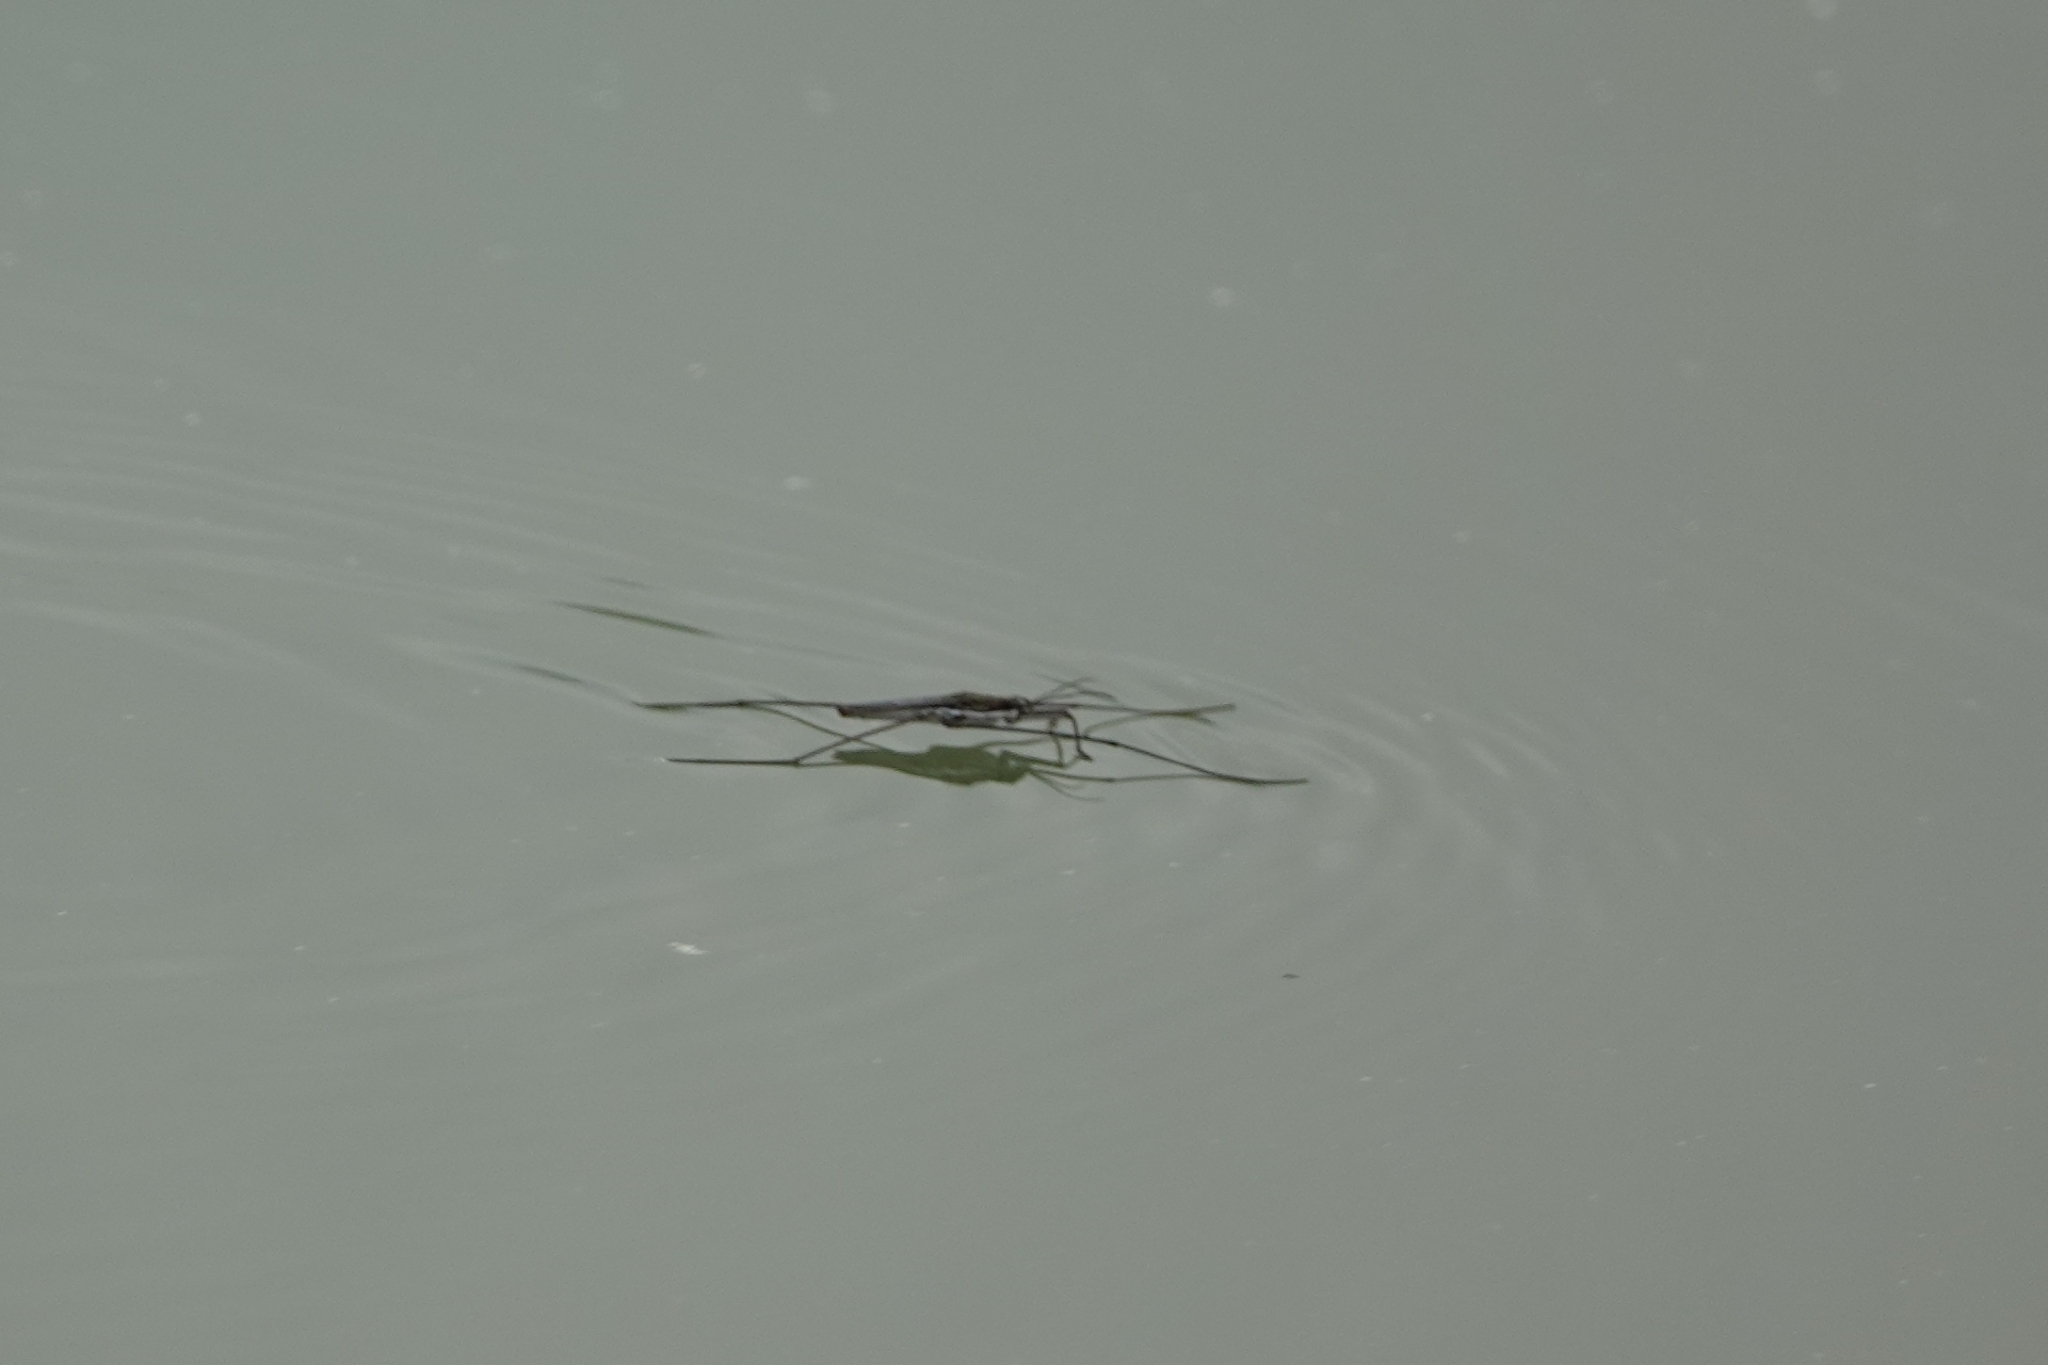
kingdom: Animalia
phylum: Arthropoda
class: Insecta
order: Hemiptera
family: Gerridae
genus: Aquarius
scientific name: Aquarius paludum
